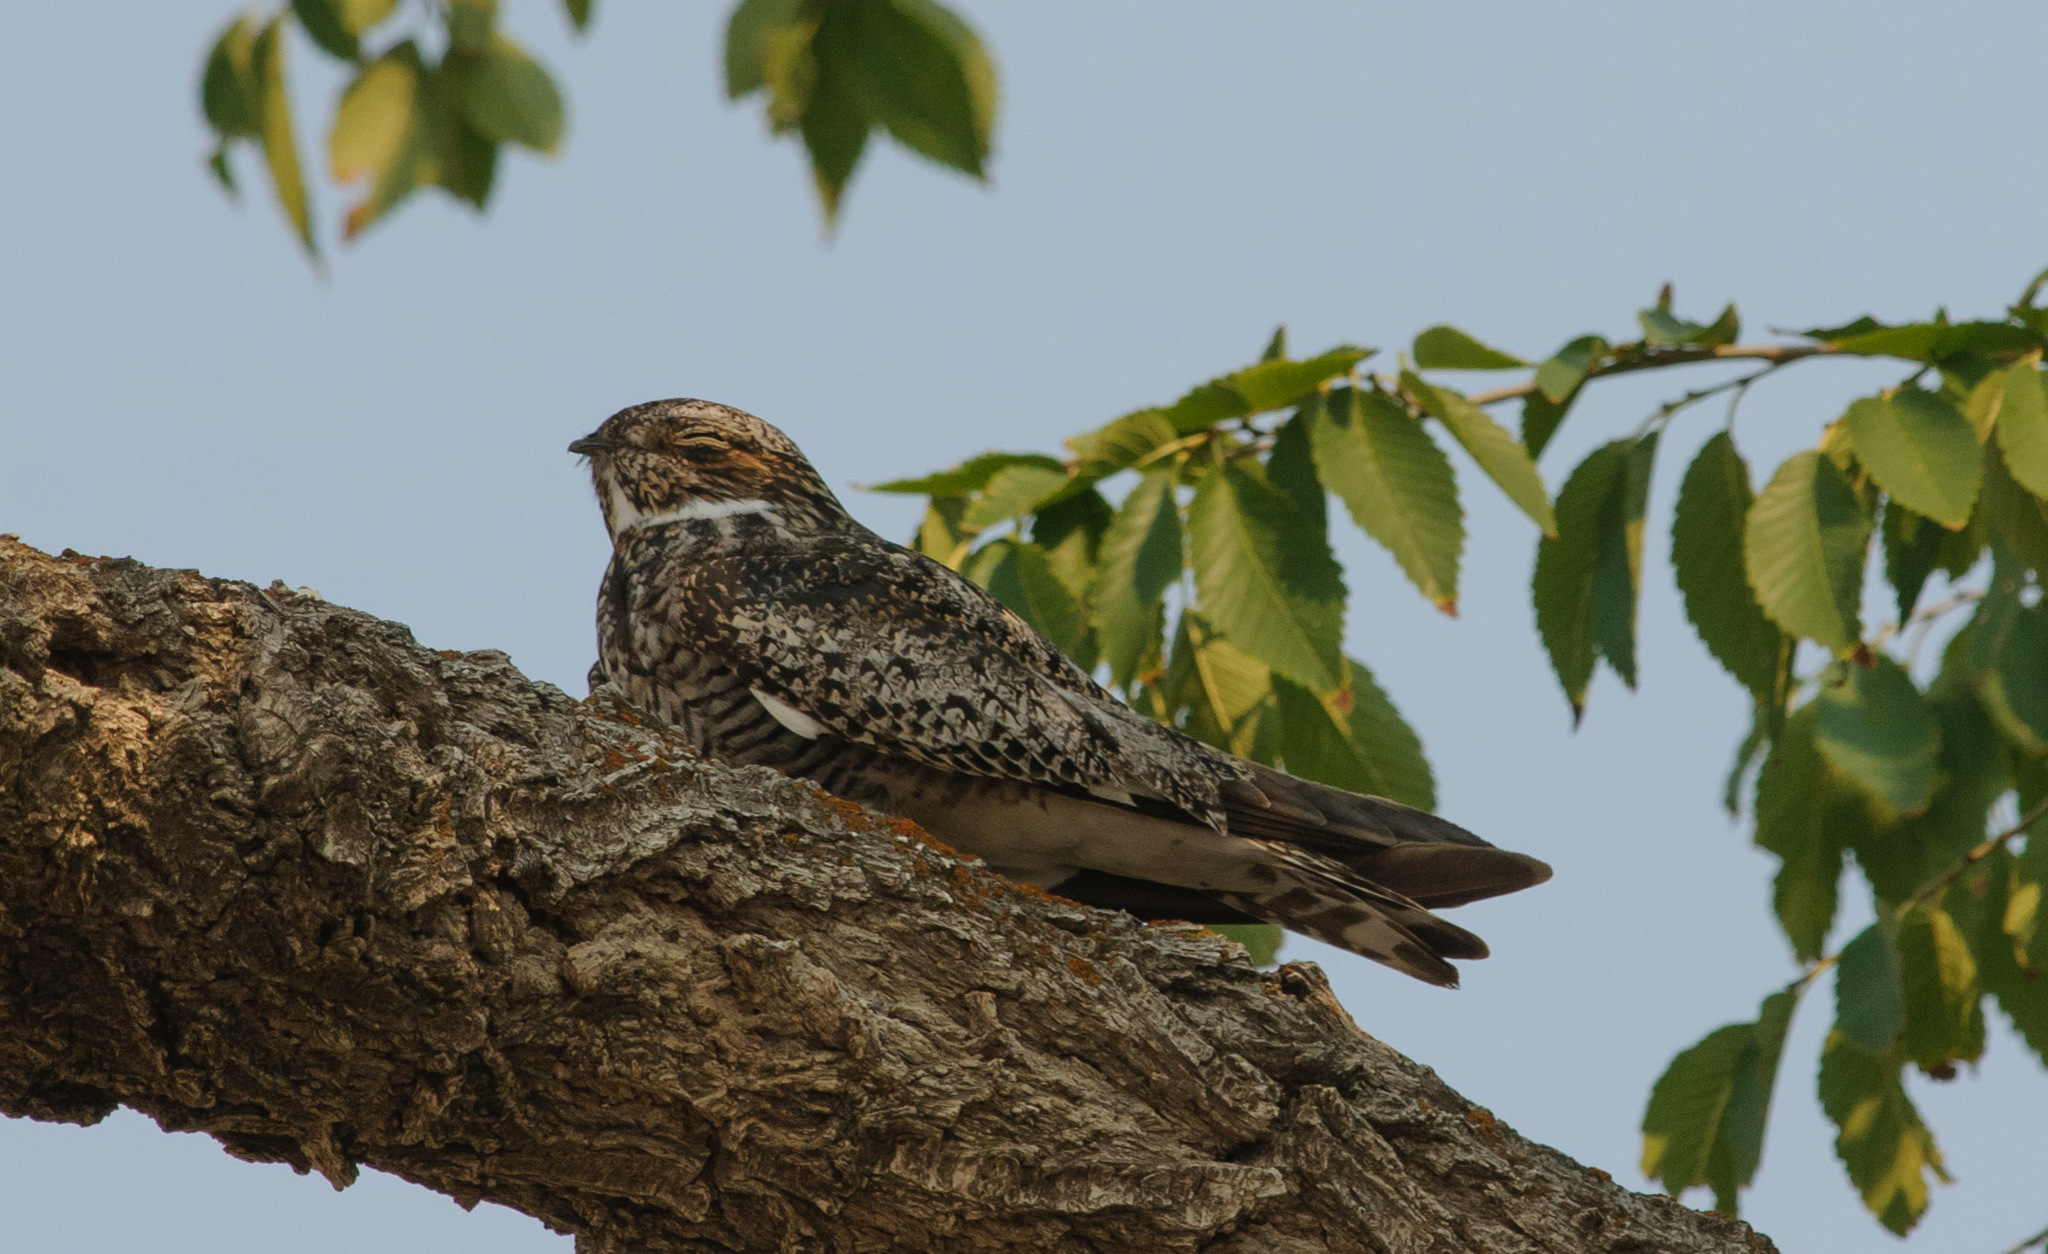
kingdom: Animalia
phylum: Chordata
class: Aves
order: Caprimulgiformes
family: Caprimulgidae
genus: Chordeiles
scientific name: Chordeiles minor
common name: Common nighthawk
